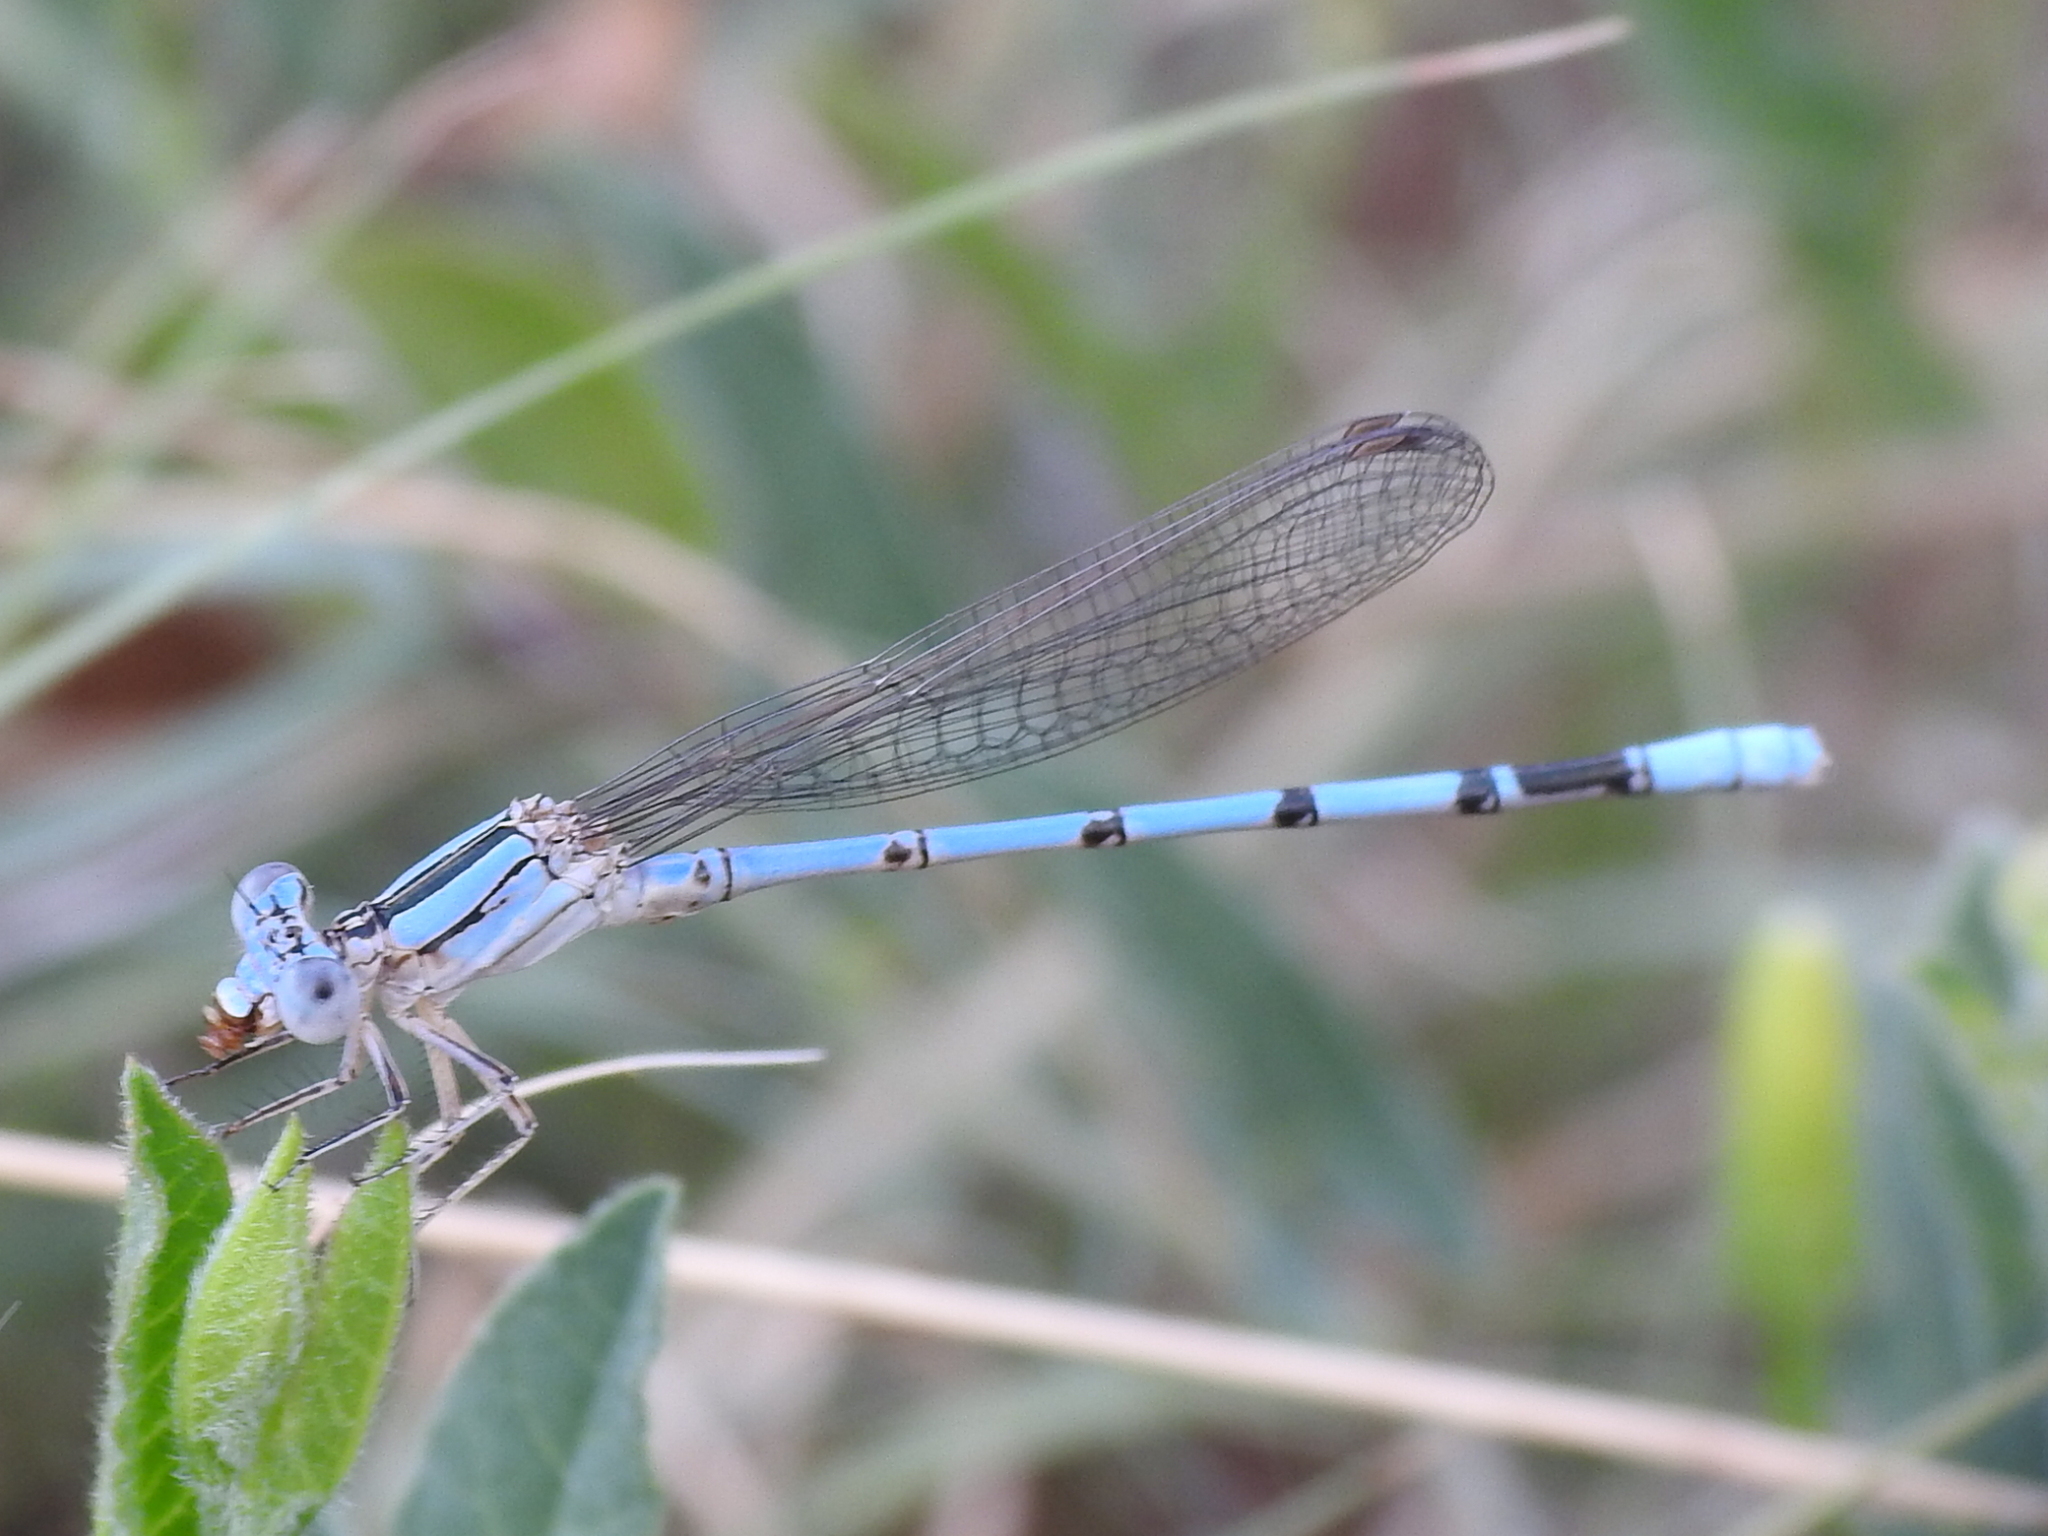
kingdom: Animalia
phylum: Arthropoda
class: Insecta
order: Odonata
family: Coenagrionidae
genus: Argia
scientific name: Argia nahuana
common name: Aztec dancer
